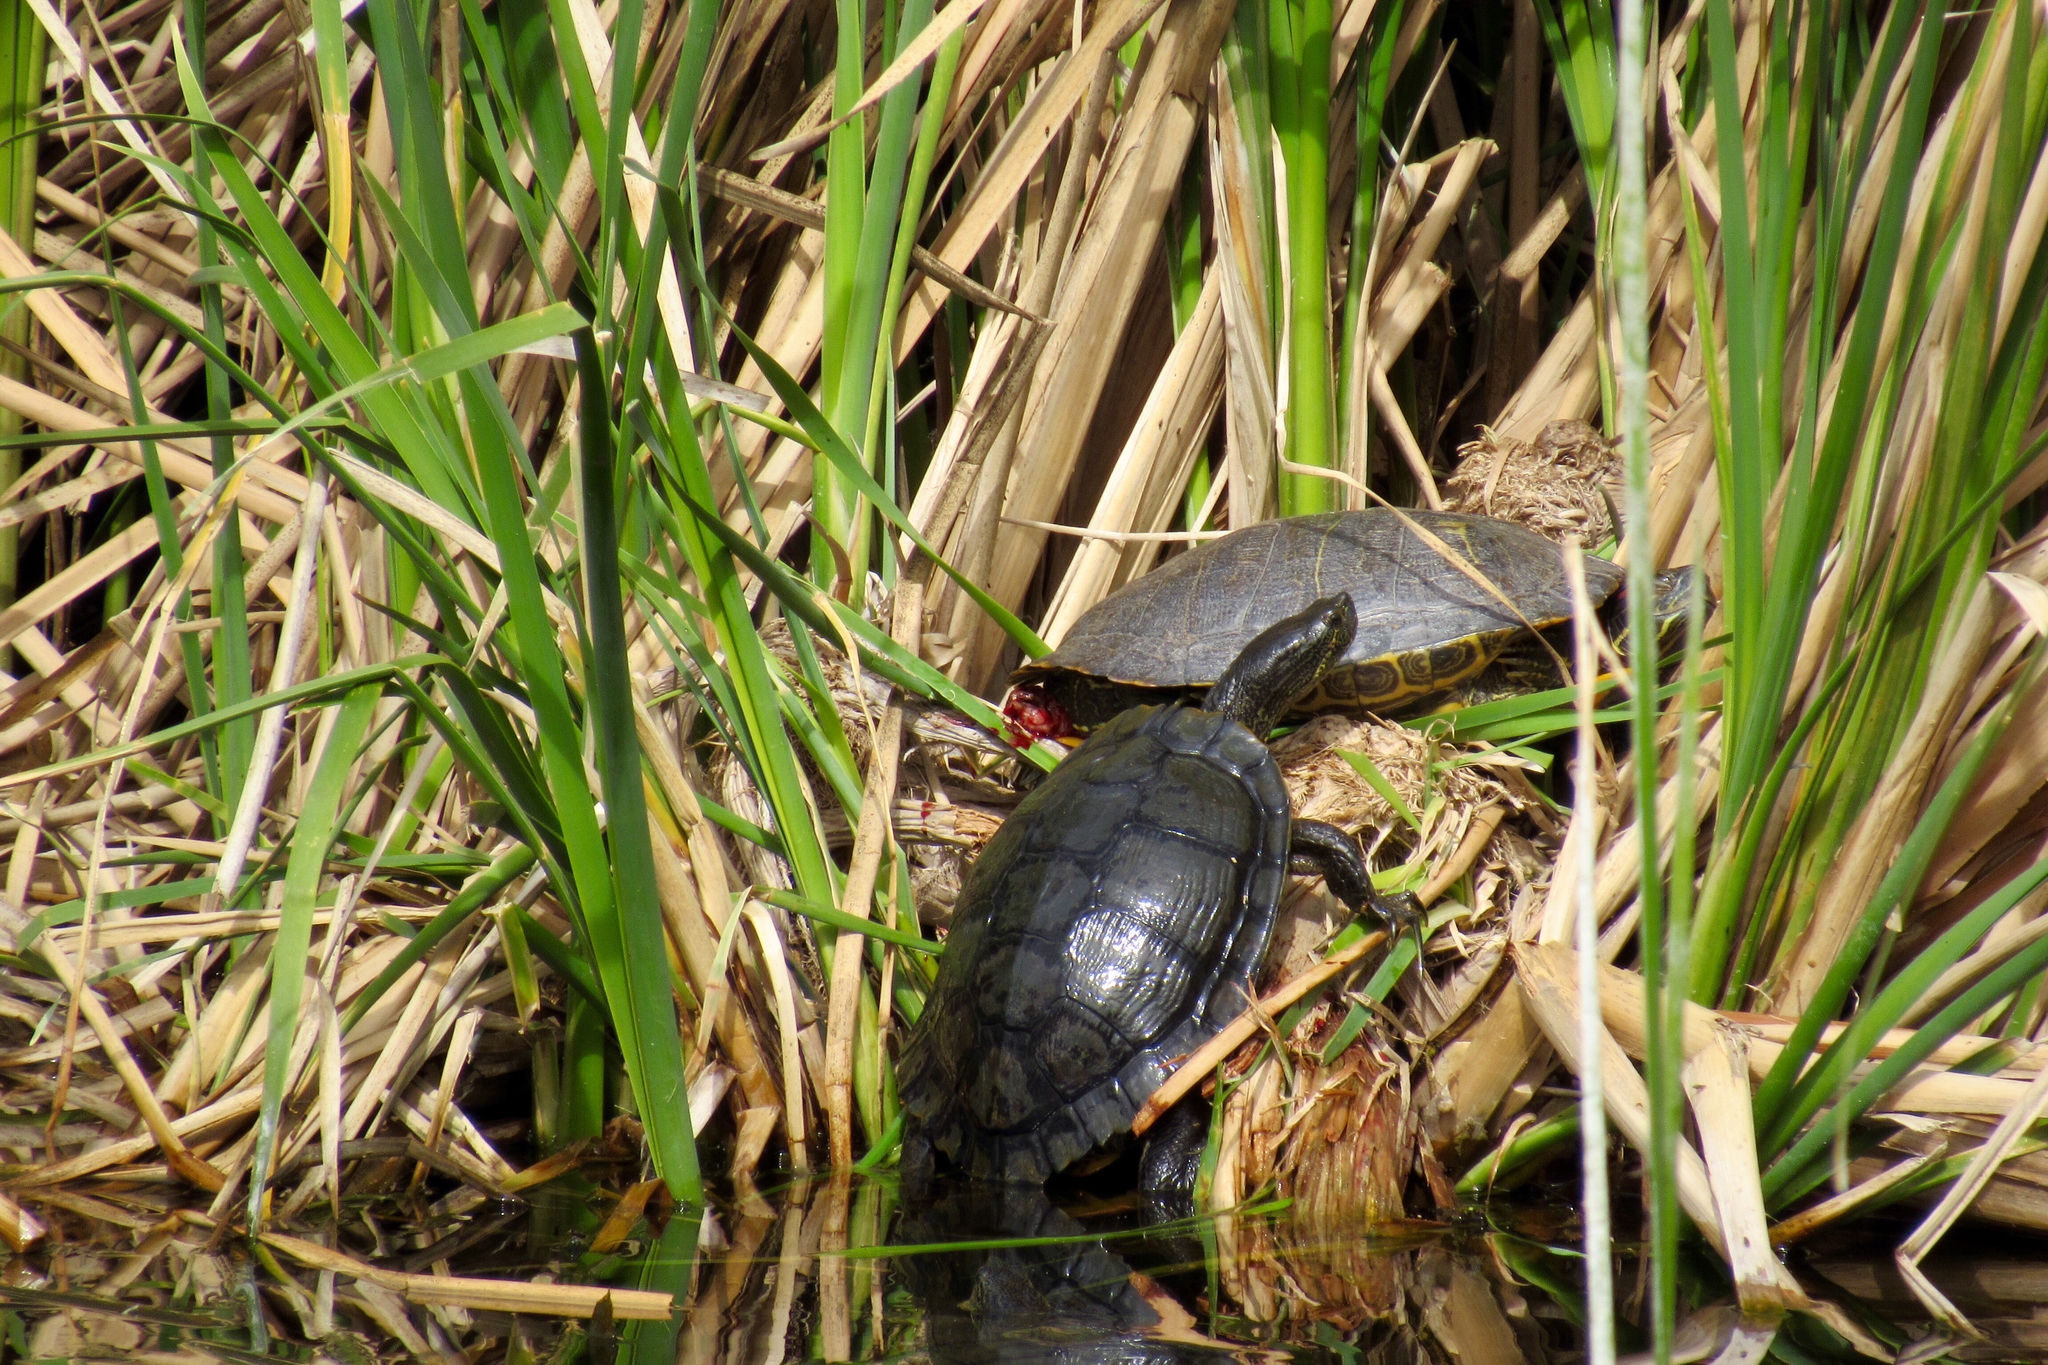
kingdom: Animalia
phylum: Chordata
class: Testudines
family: Emydidae
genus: Trachemys
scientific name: Trachemys scripta
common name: Slider
